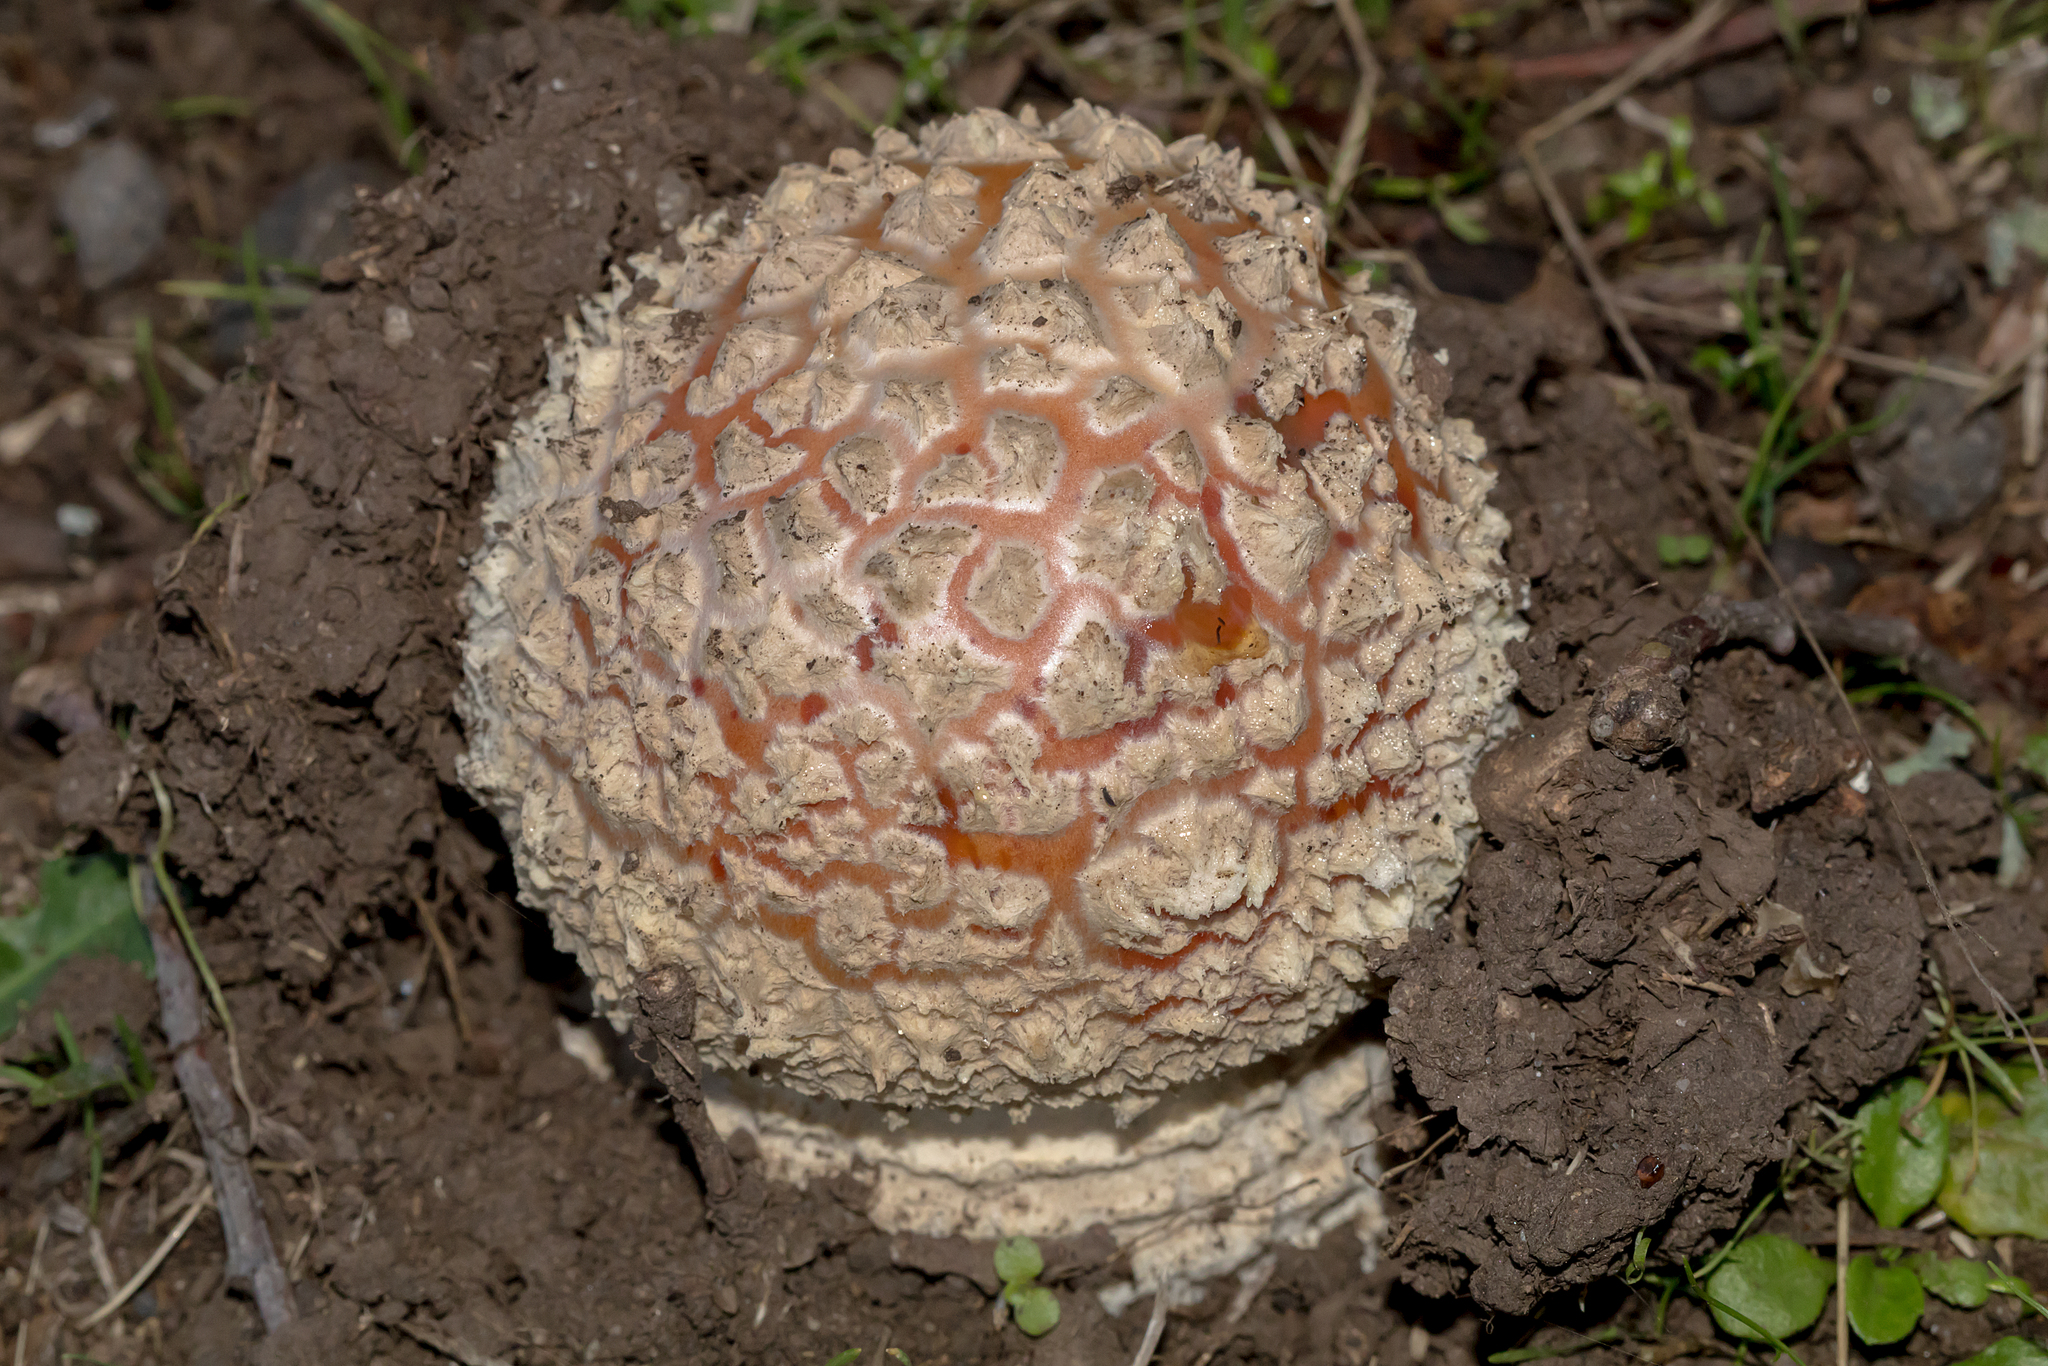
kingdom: Fungi
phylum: Basidiomycota
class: Agaricomycetes
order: Agaricales
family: Amanitaceae
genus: Amanita
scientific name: Amanita muscaria
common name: Fly agaric
